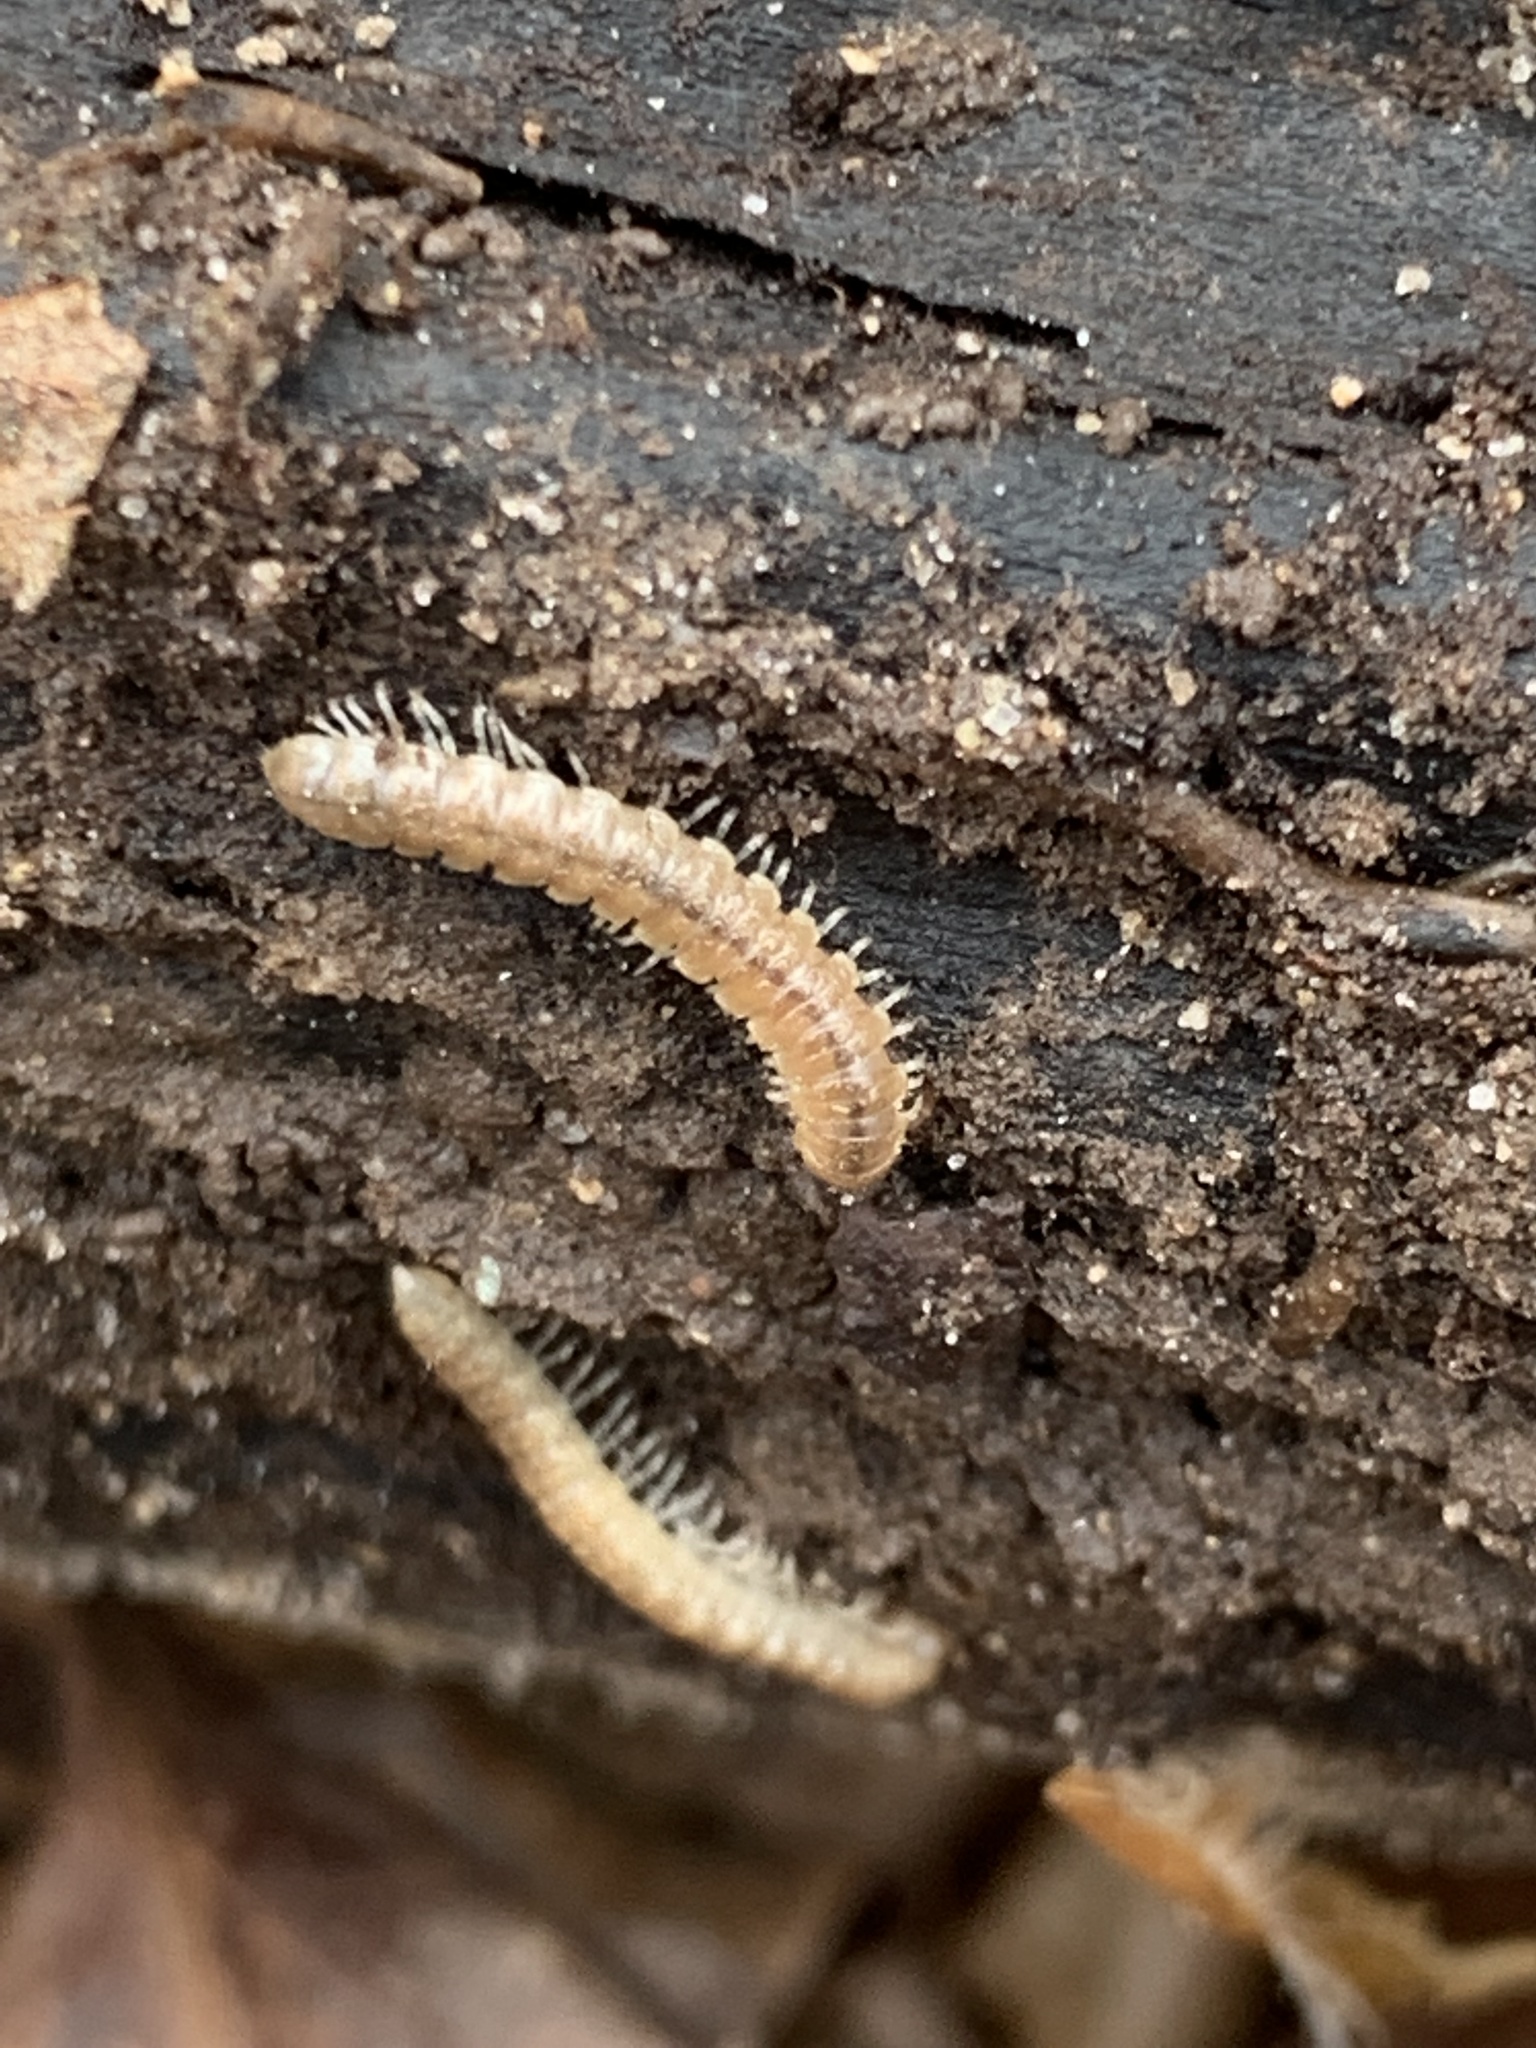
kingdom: Animalia
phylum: Arthropoda
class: Diplopoda
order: Polydesmida
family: Paradoxosomatidae
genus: Oxidus
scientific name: Oxidus gracilis
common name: Greenhouse millipede
